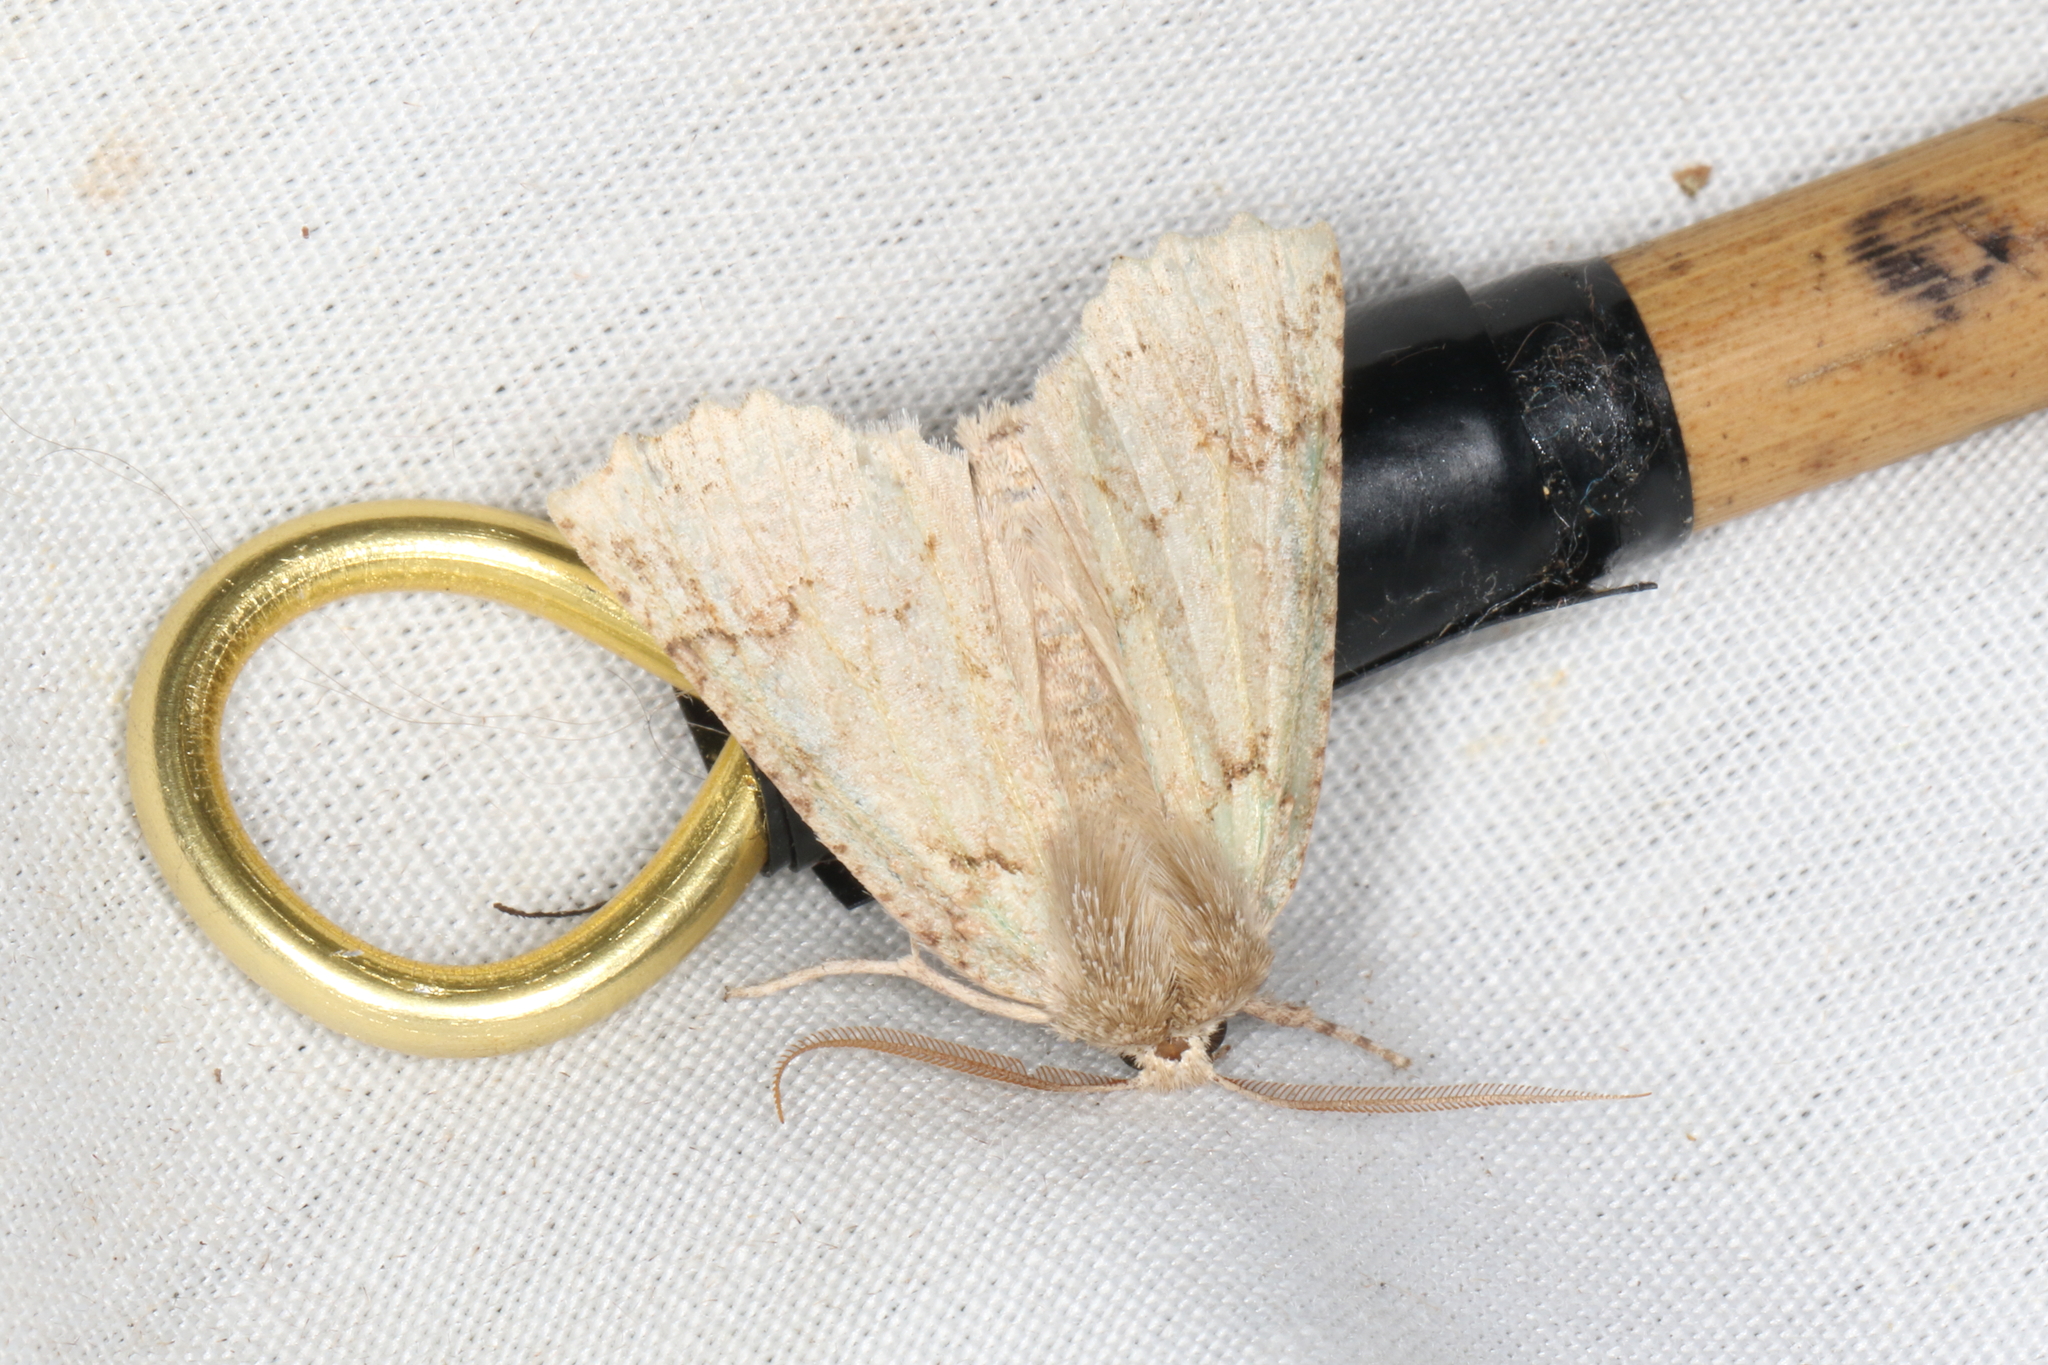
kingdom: Animalia
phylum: Arthropoda
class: Insecta
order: Lepidoptera
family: Geometridae
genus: Declana
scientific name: Declana floccosa
